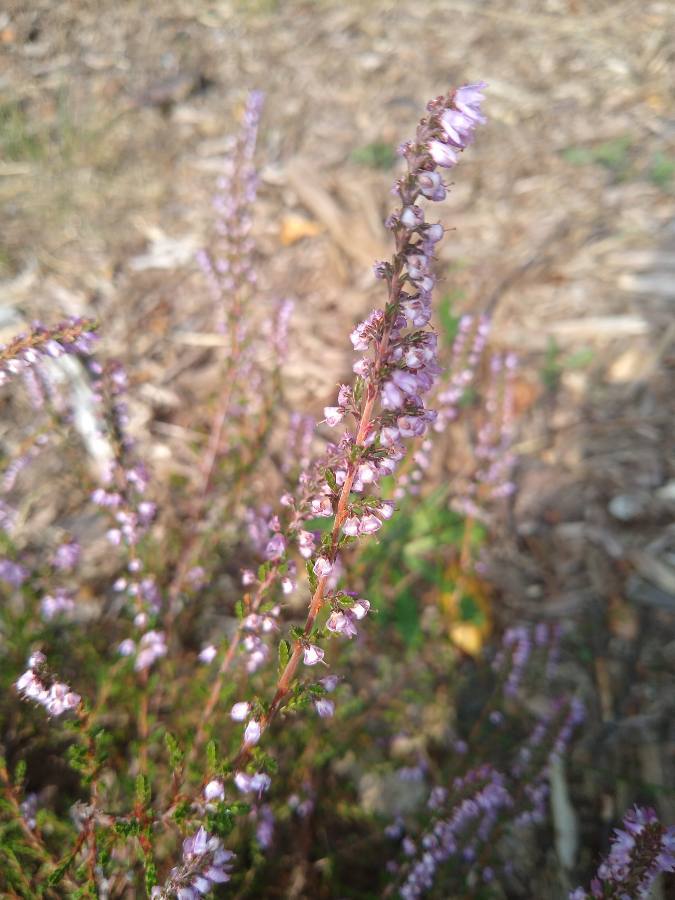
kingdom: Plantae
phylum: Tracheophyta
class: Magnoliopsida
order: Ericales
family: Ericaceae
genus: Calluna
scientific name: Calluna vulgaris
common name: Heather
